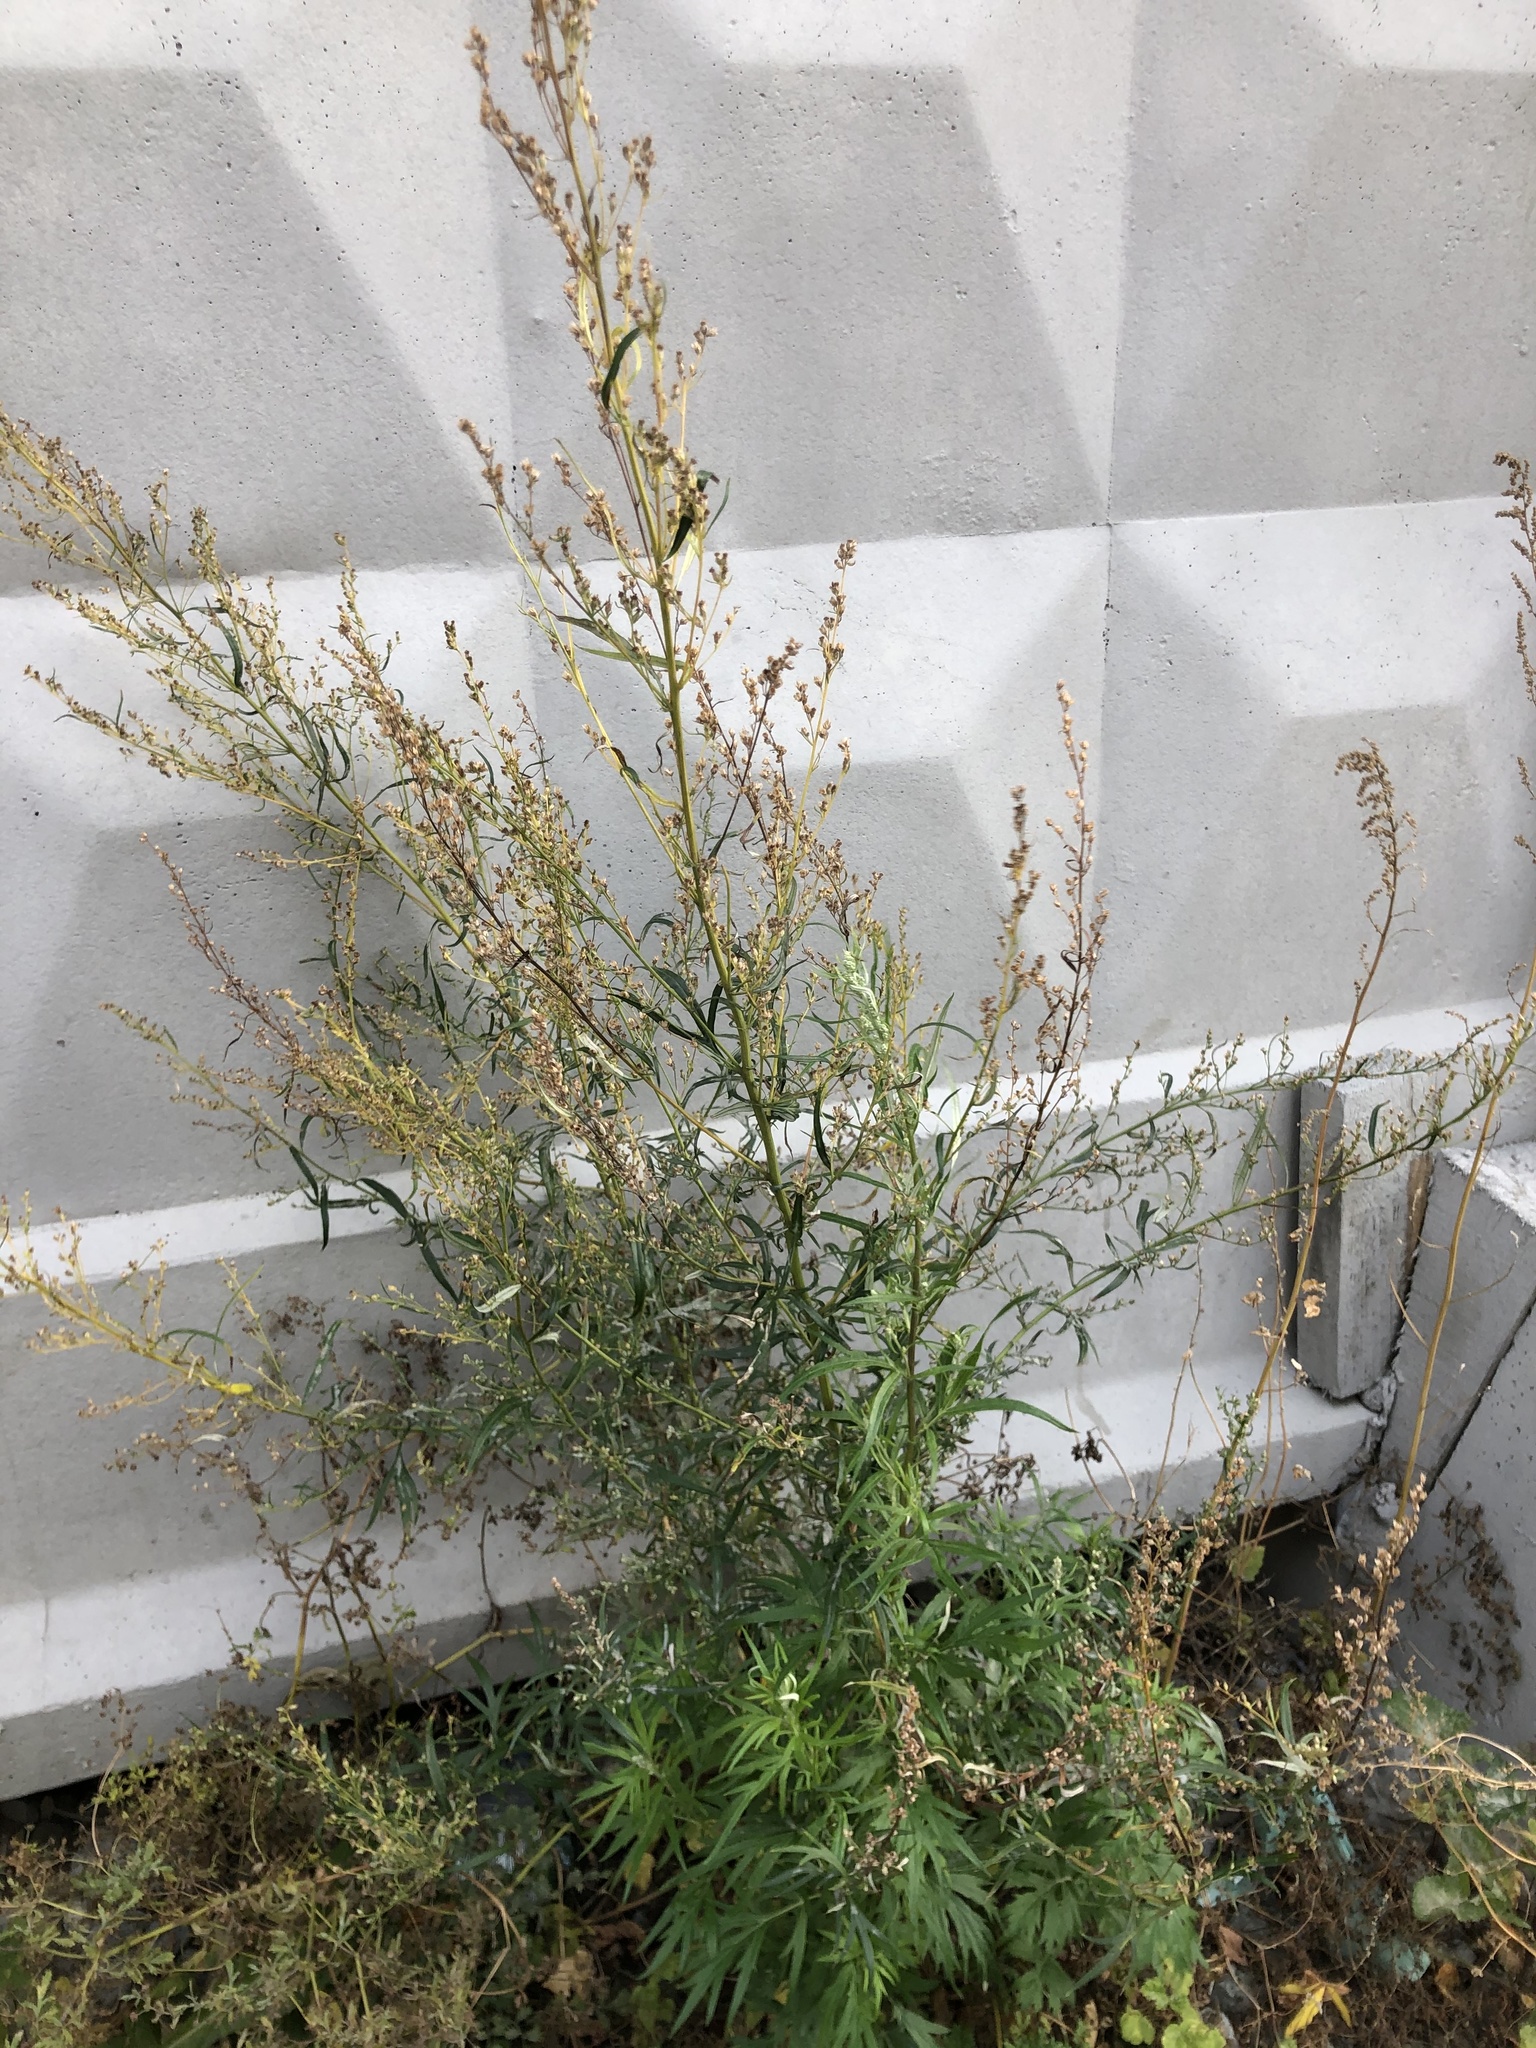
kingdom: Plantae
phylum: Tracheophyta
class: Magnoliopsida
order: Asterales
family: Asteraceae
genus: Artemisia
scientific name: Artemisia vulgaris
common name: Mugwort
